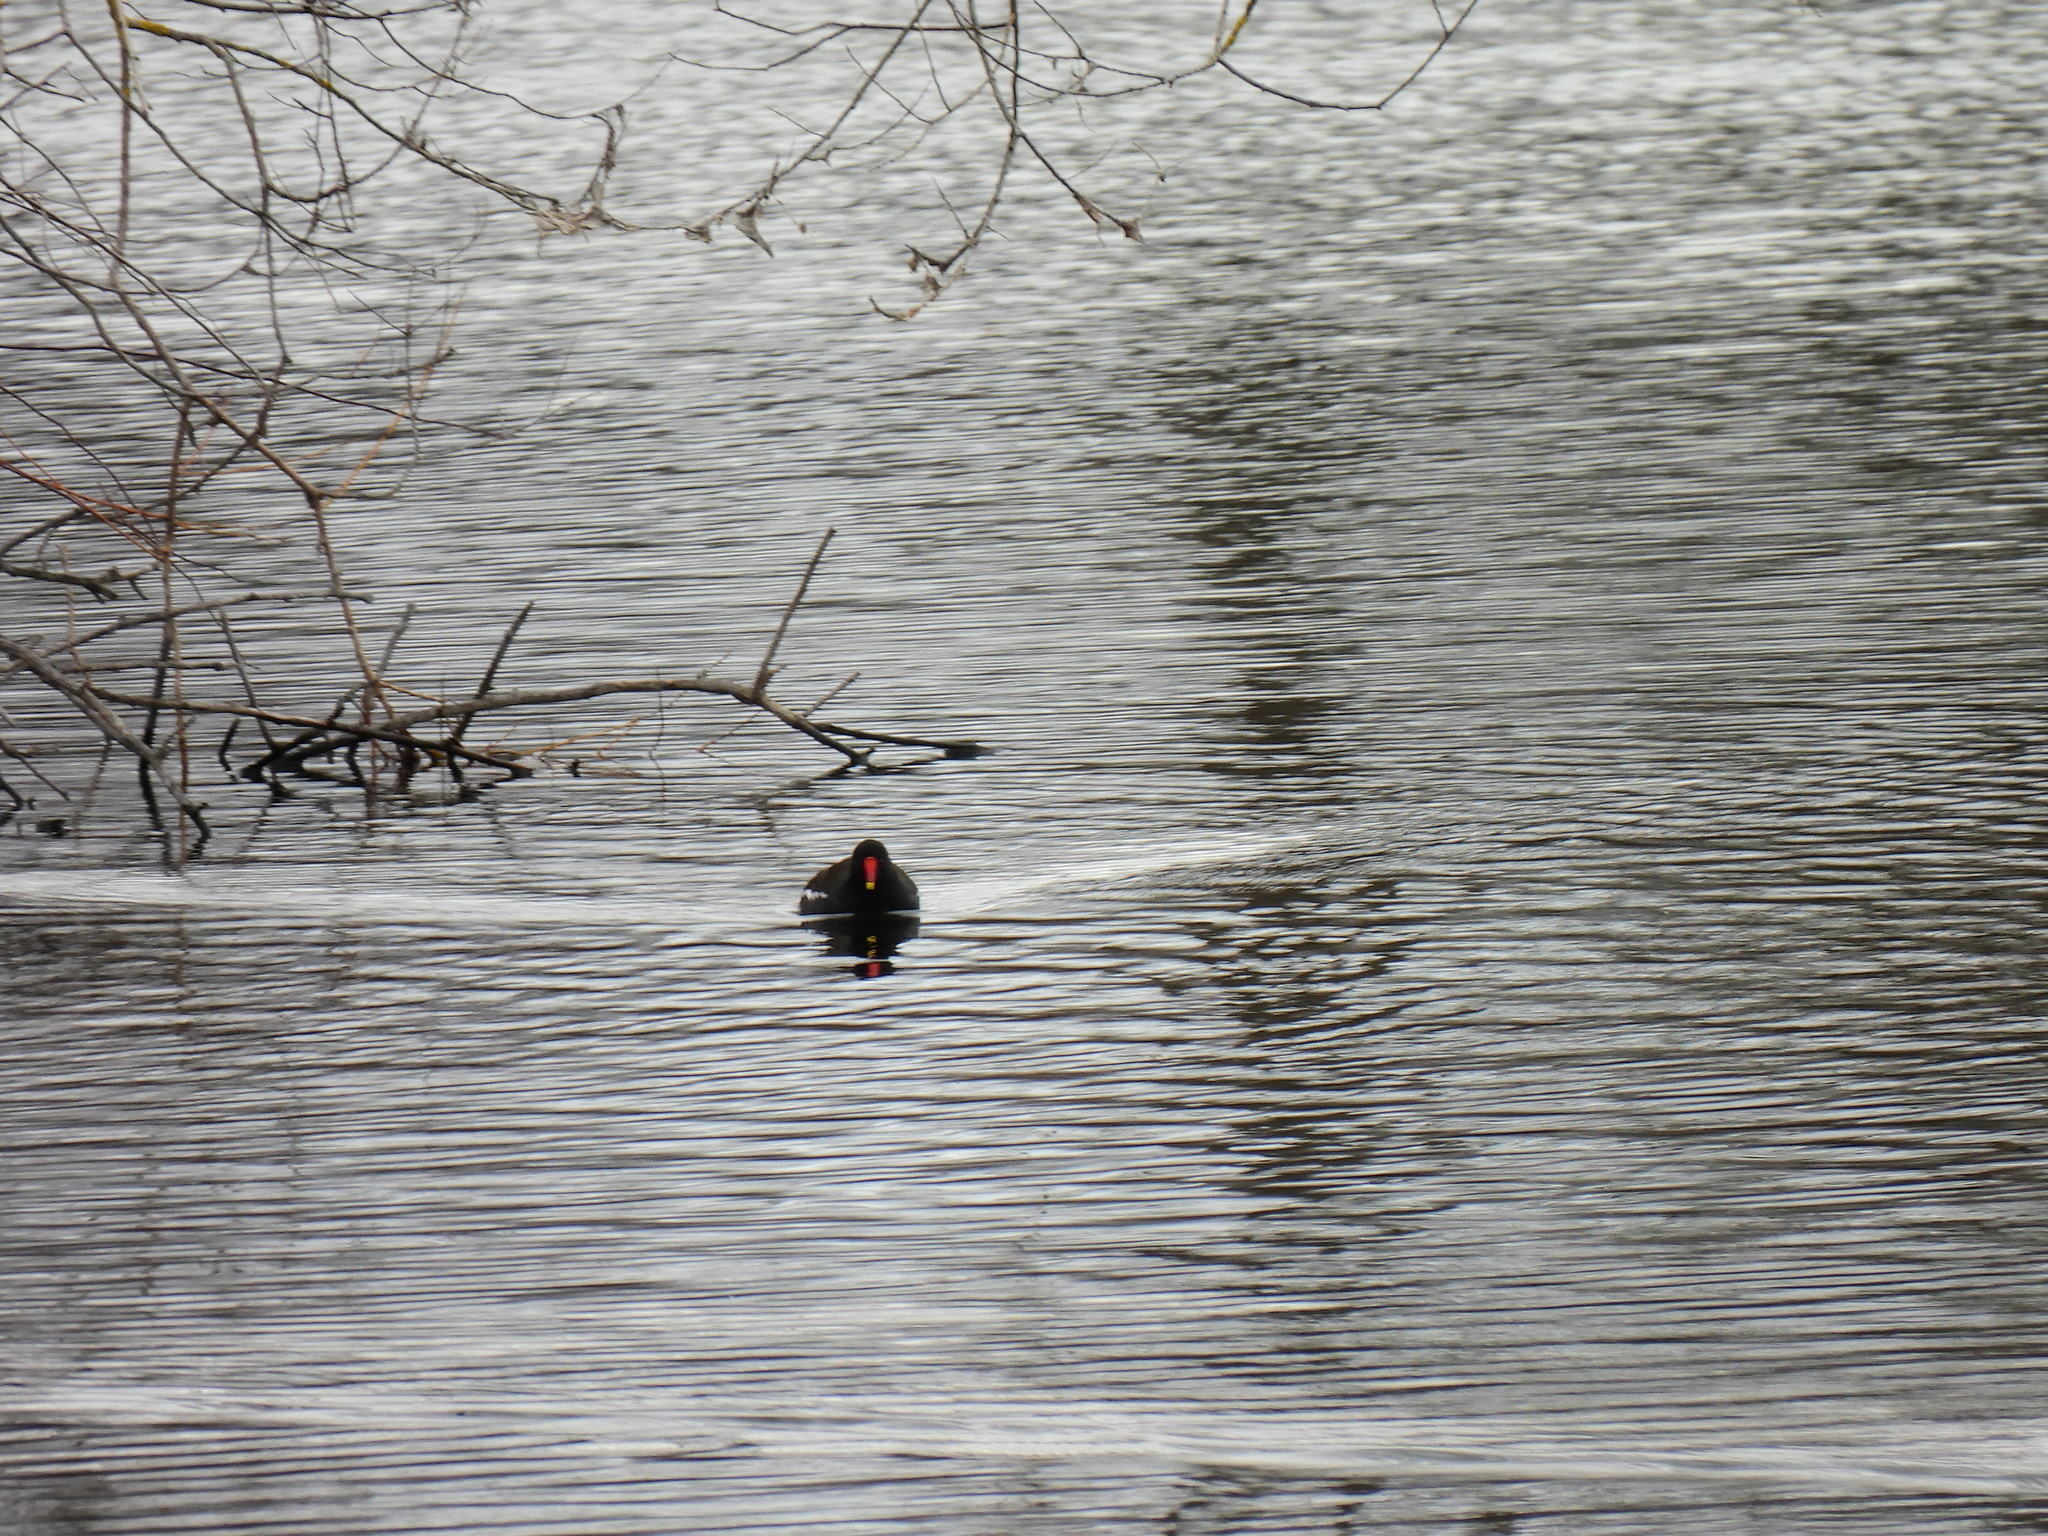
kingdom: Animalia
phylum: Chordata
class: Aves
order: Gruiformes
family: Rallidae
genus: Gallinula
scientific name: Gallinula chloropus
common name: Common moorhen
